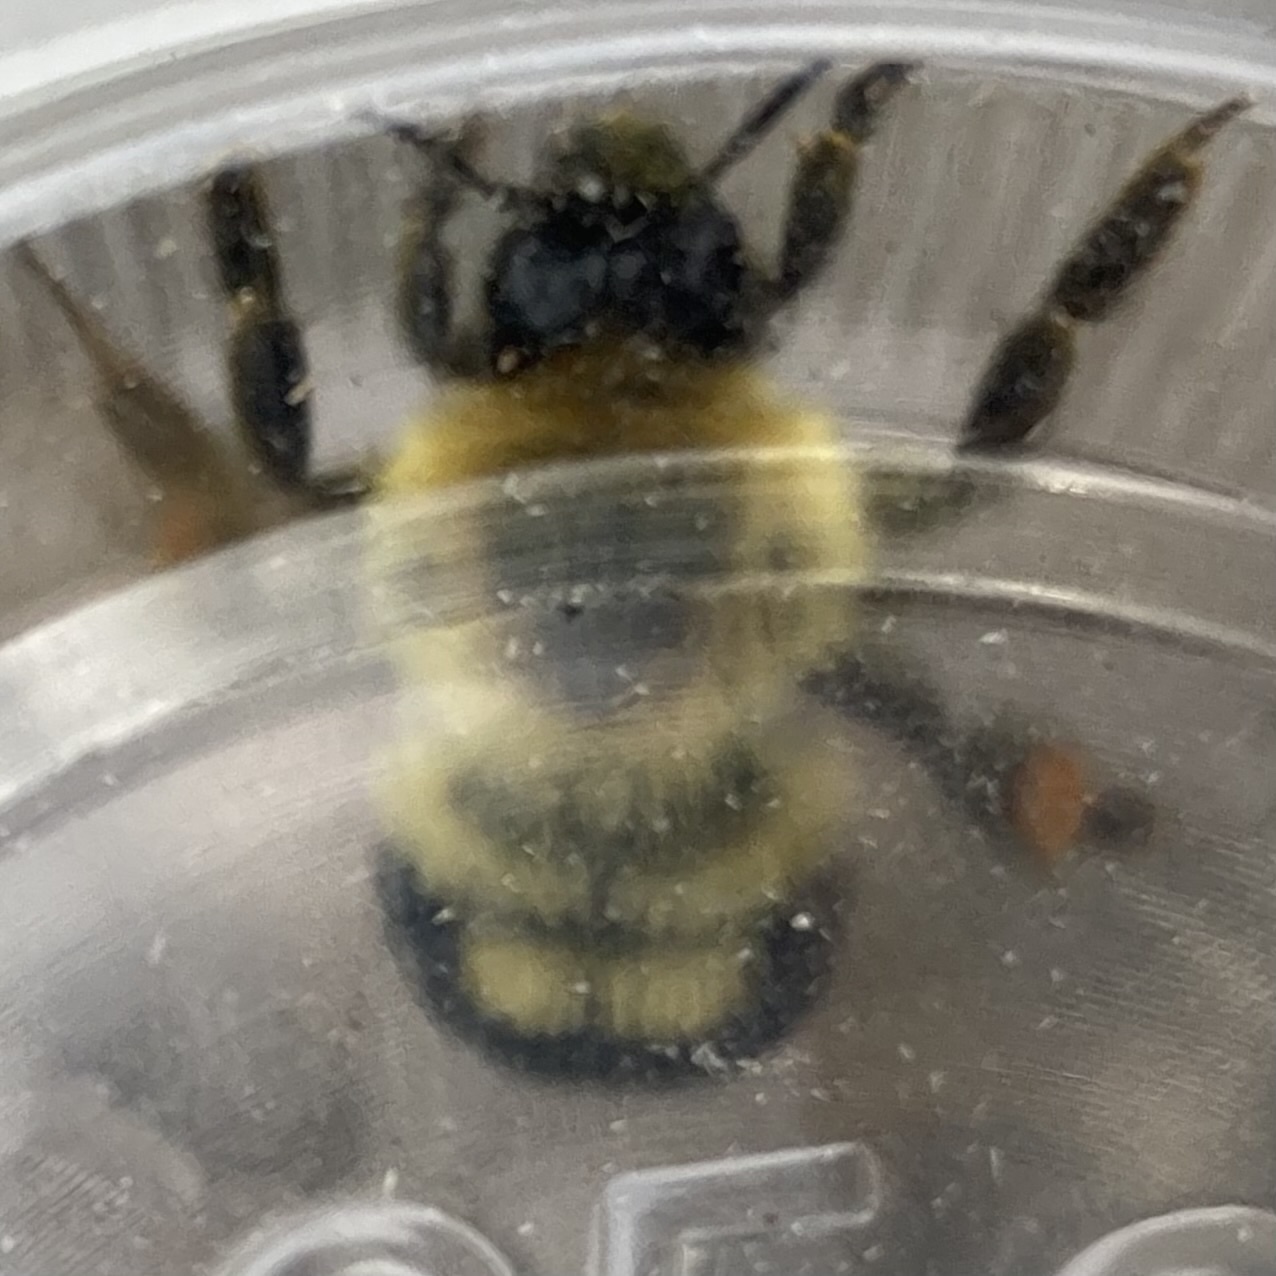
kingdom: Animalia
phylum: Arthropoda
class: Insecta
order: Hymenoptera
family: Apidae
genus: Bombus
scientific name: Bombus bimaculatus
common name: Two-spotted bumble bee
